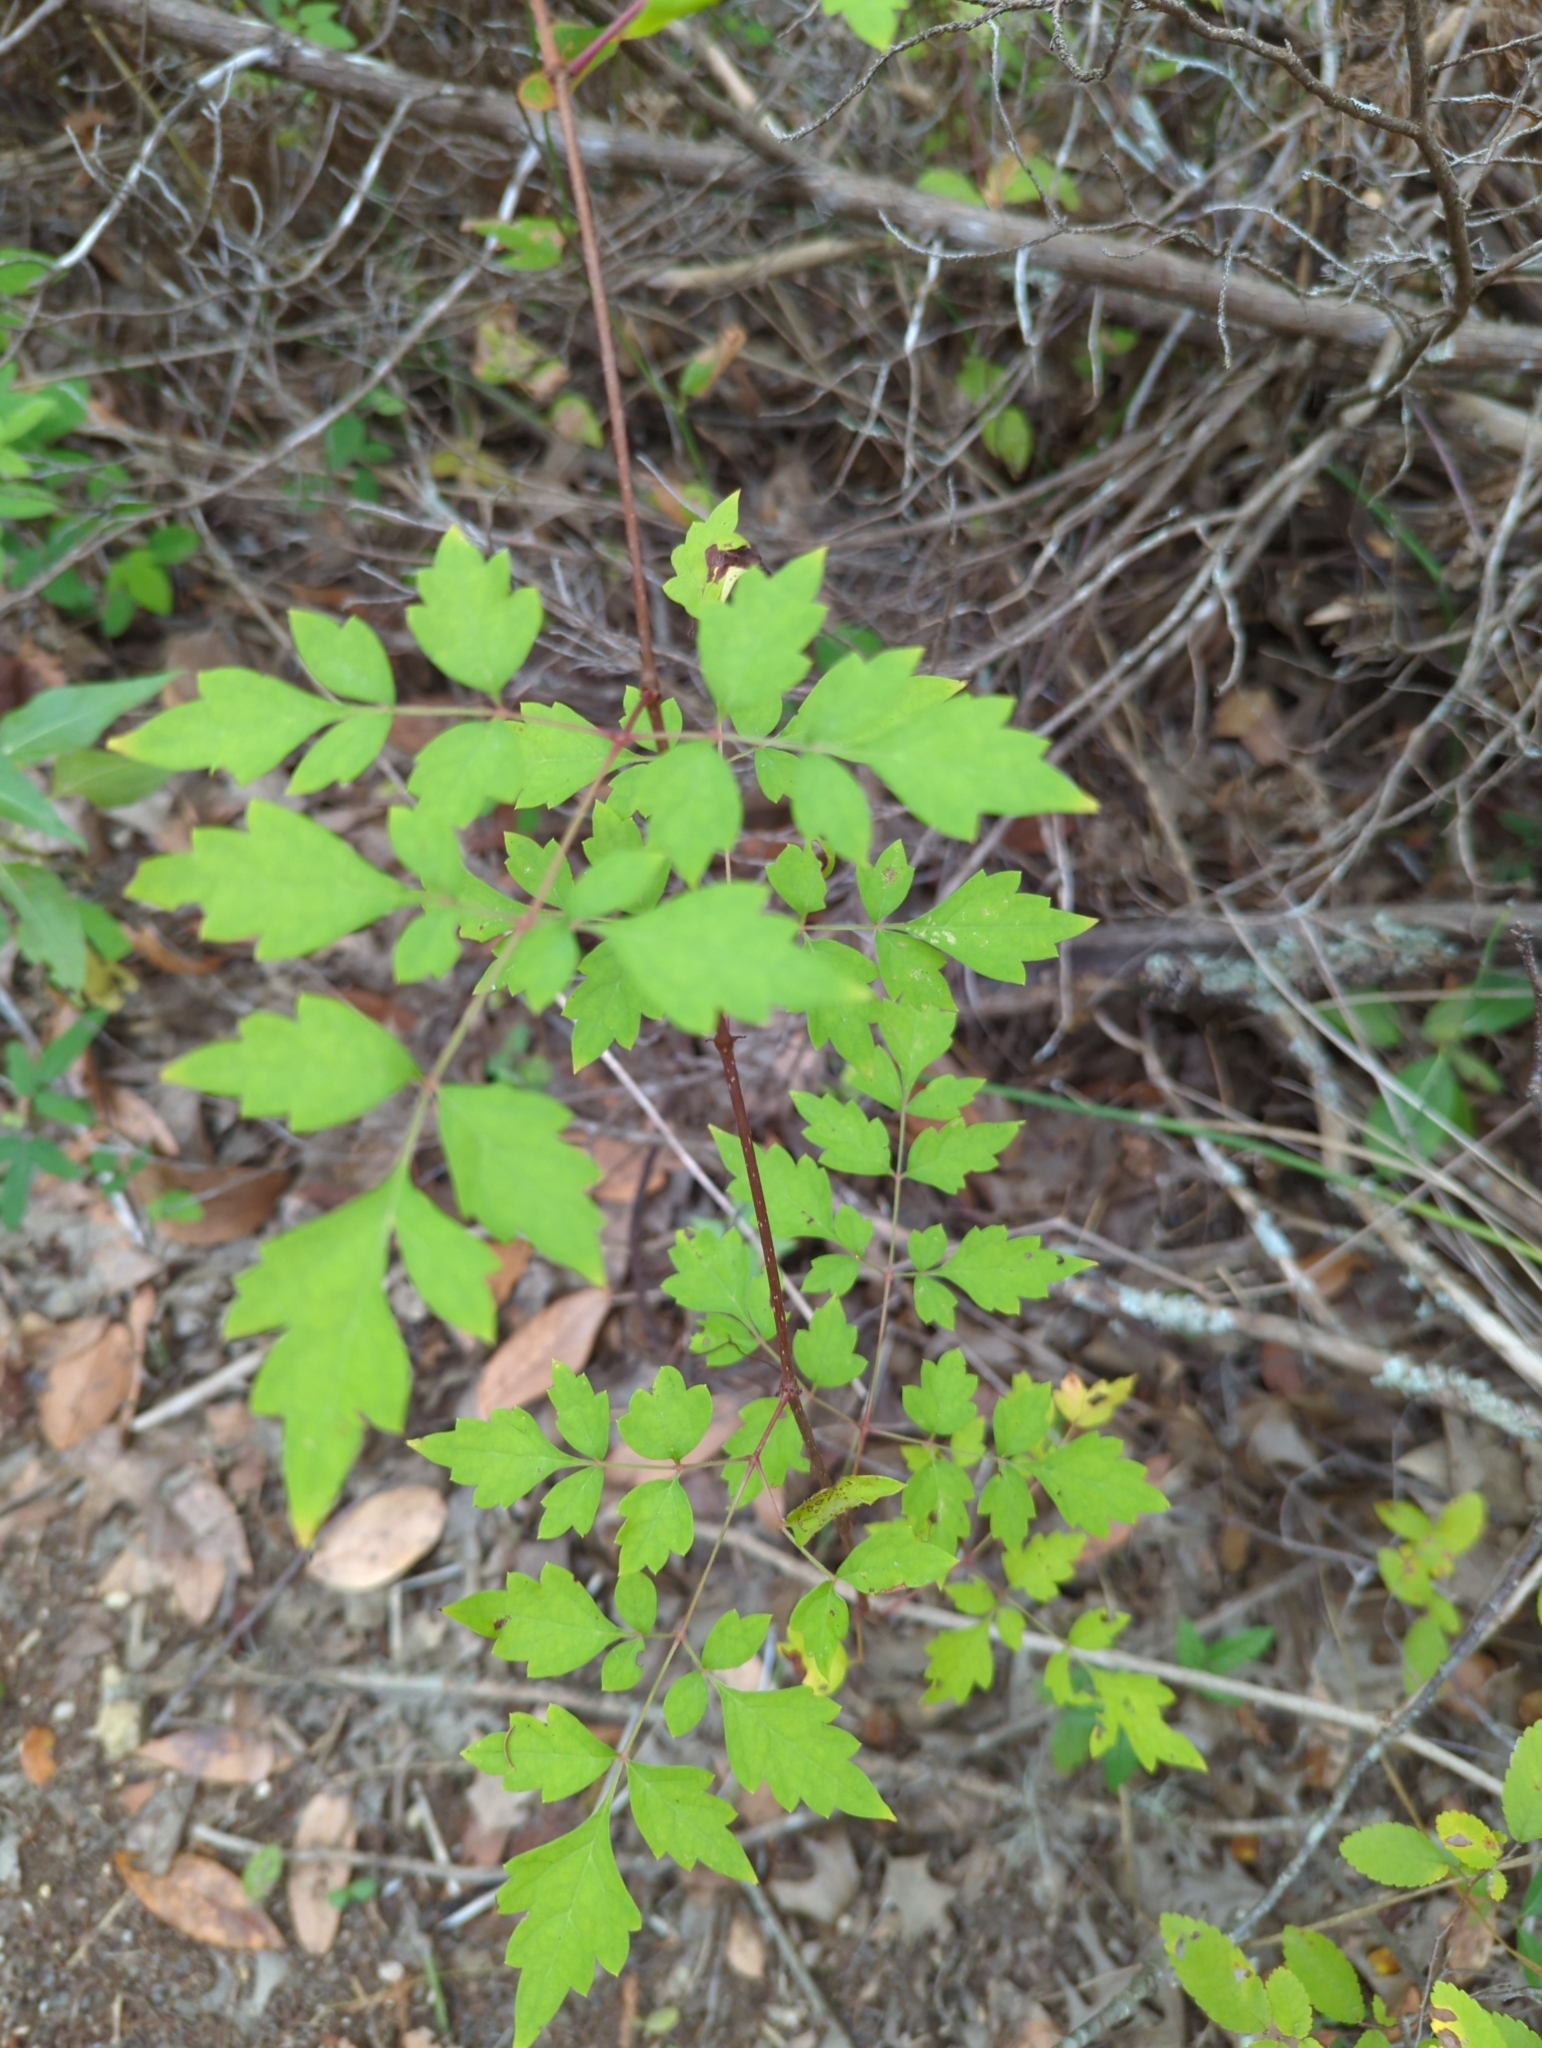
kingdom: Plantae
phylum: Tracheophyta
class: Magnoliopsida
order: Vitales
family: Vitaceae
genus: Nekemias
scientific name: Nekemias arborea
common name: Peppervine
